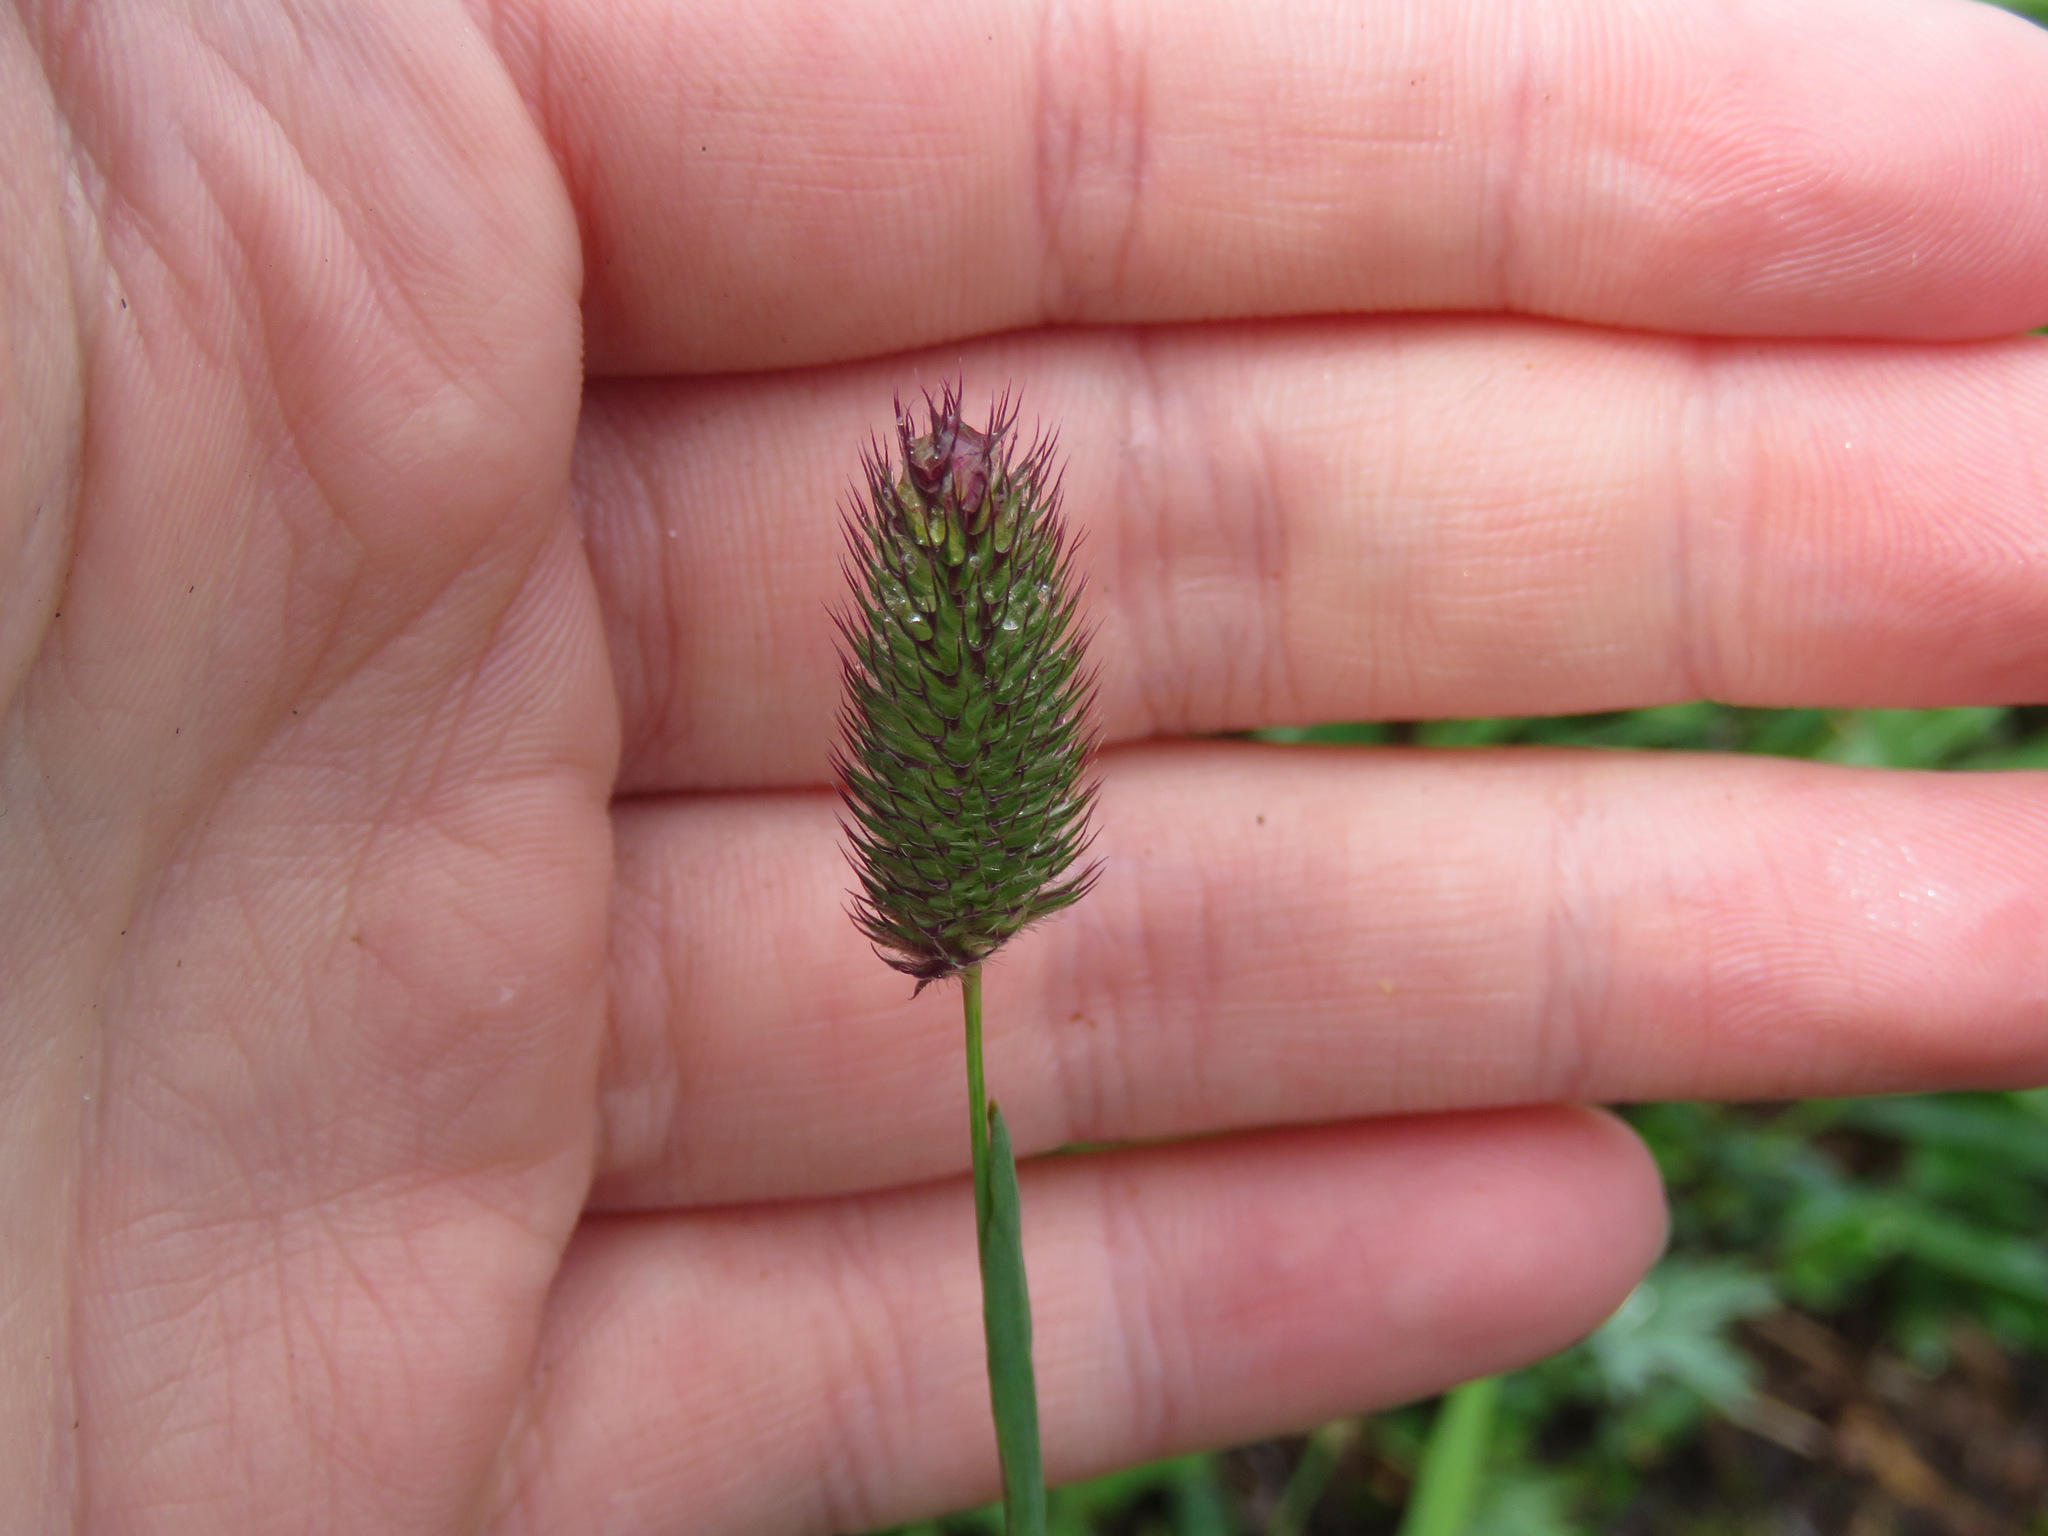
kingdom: Plantae
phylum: Tracheophyta
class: Liliopsida
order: Poales
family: Poaceae
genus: Phleum
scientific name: Phleum alpinum
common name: Alpine cat's-tail
